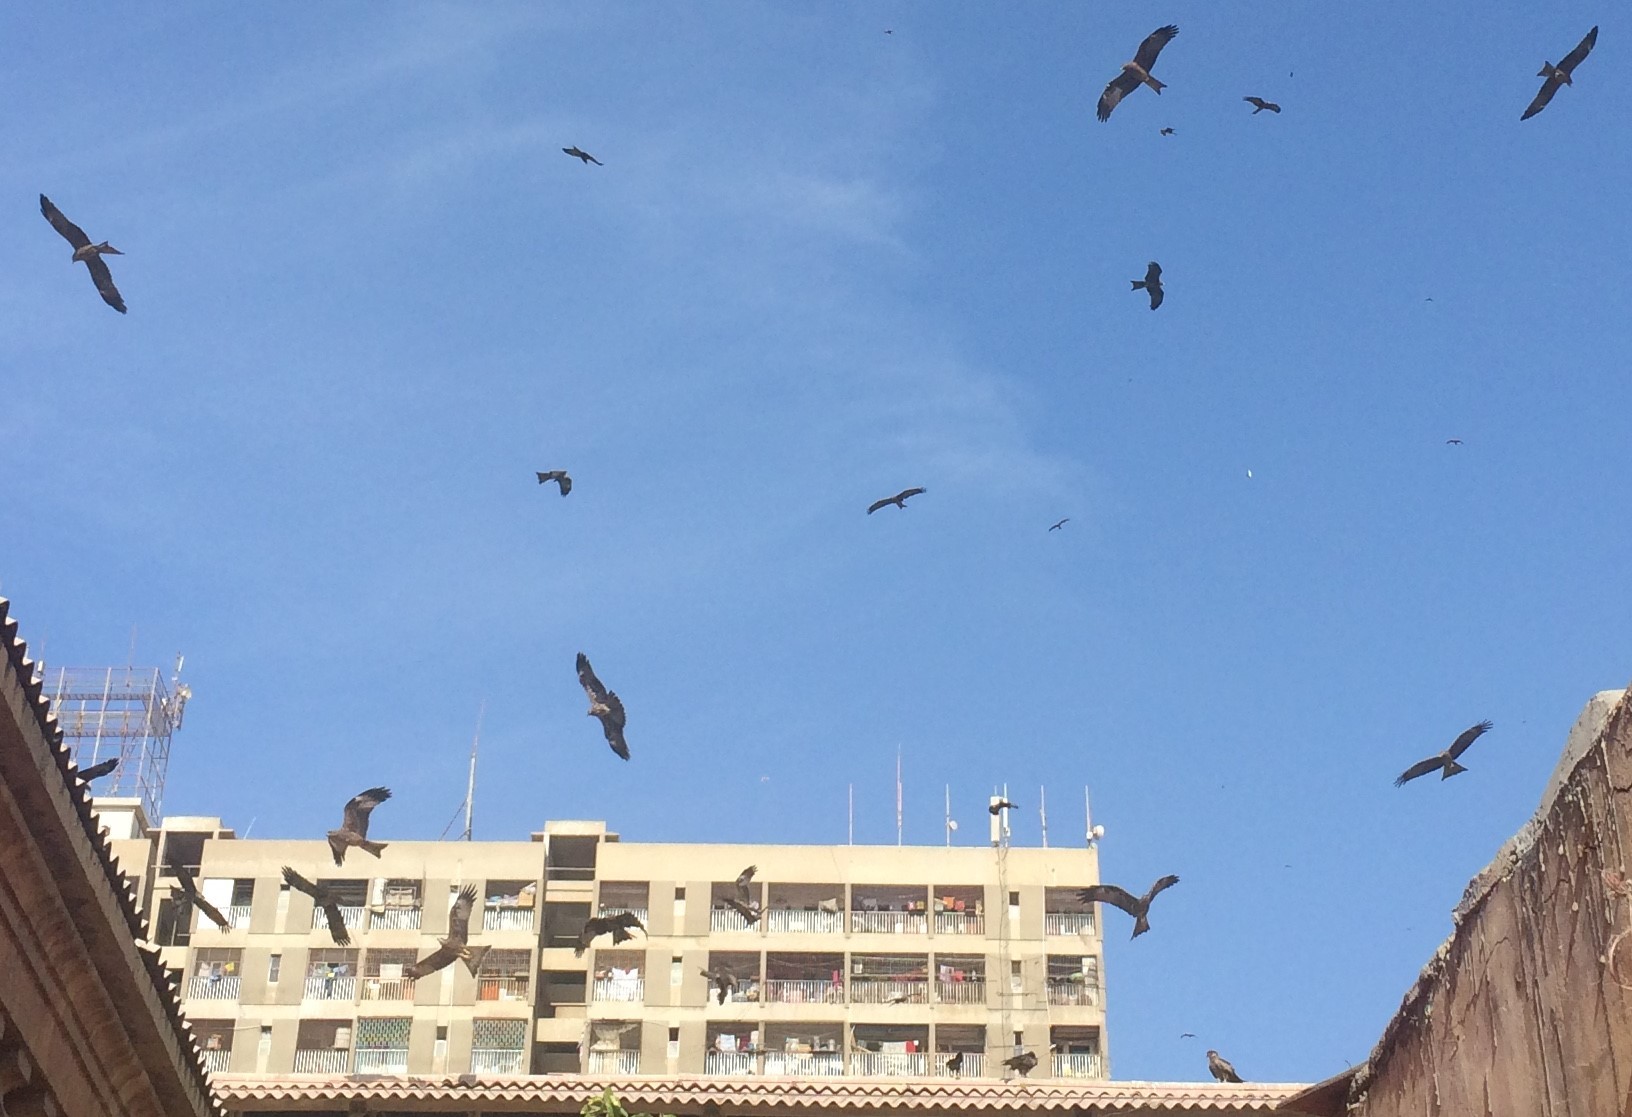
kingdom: Animalia
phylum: Chordata
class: Aves
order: Accipitriformes
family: Accipitridae
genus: Milvus
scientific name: Milvus migrans
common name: Black kite
